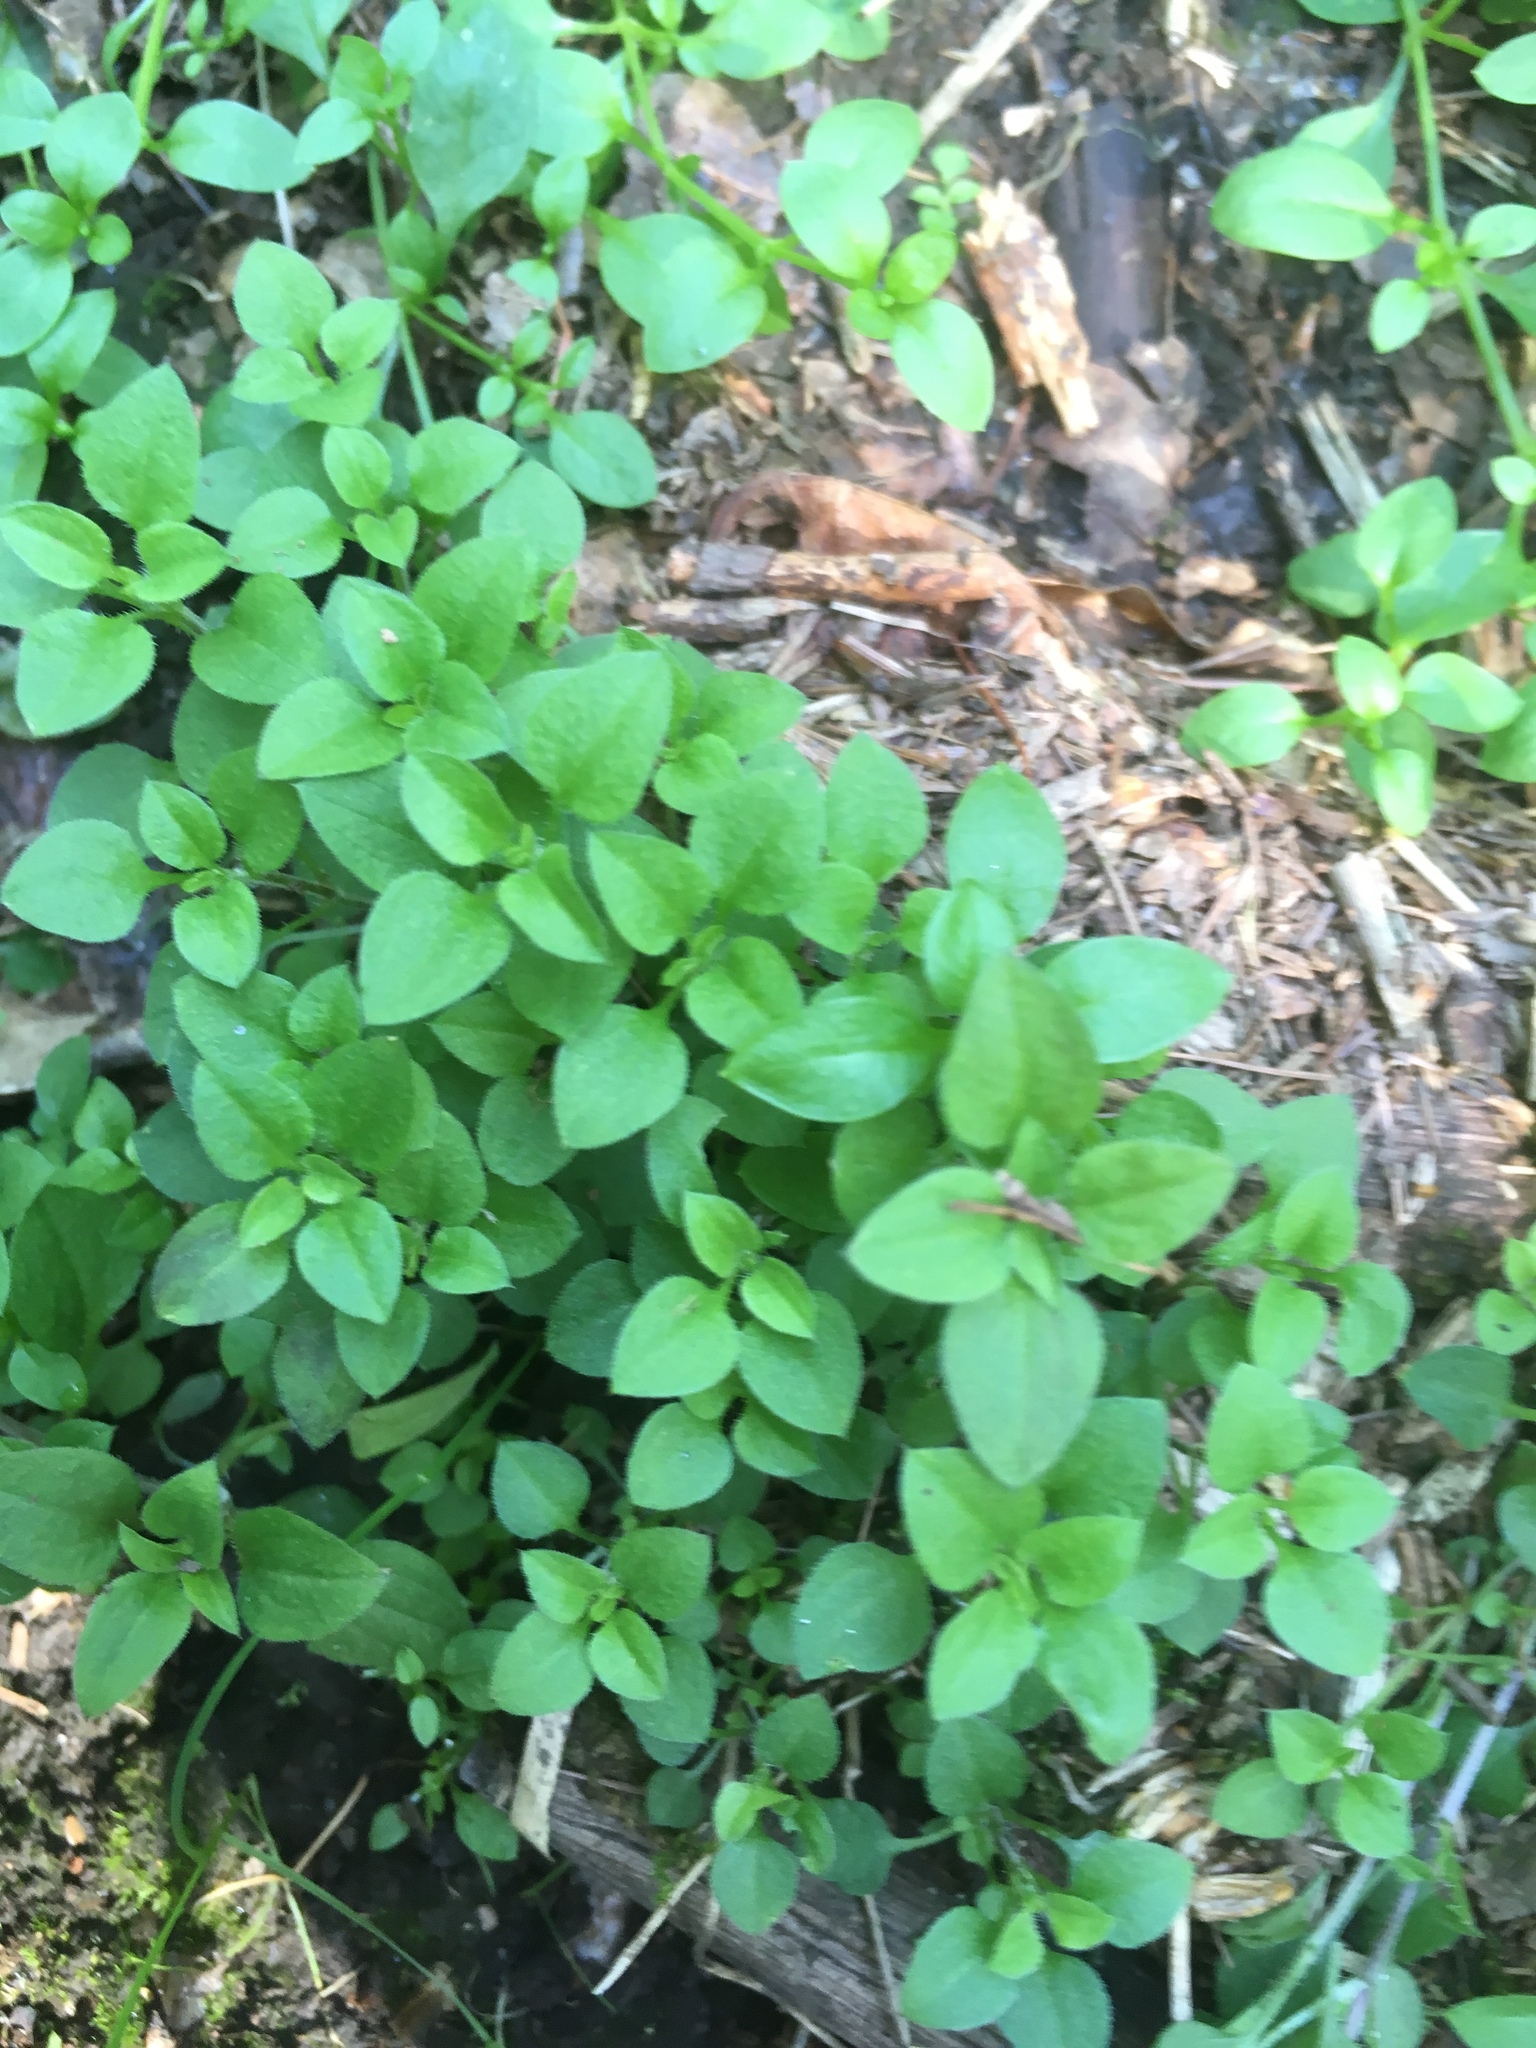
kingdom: Plantae
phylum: Tracheophyta
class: Magnoliopsida
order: Caryophyllales
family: Caryophyllaceae
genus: Stellaria
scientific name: Stellaria media
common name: Common chickweed
